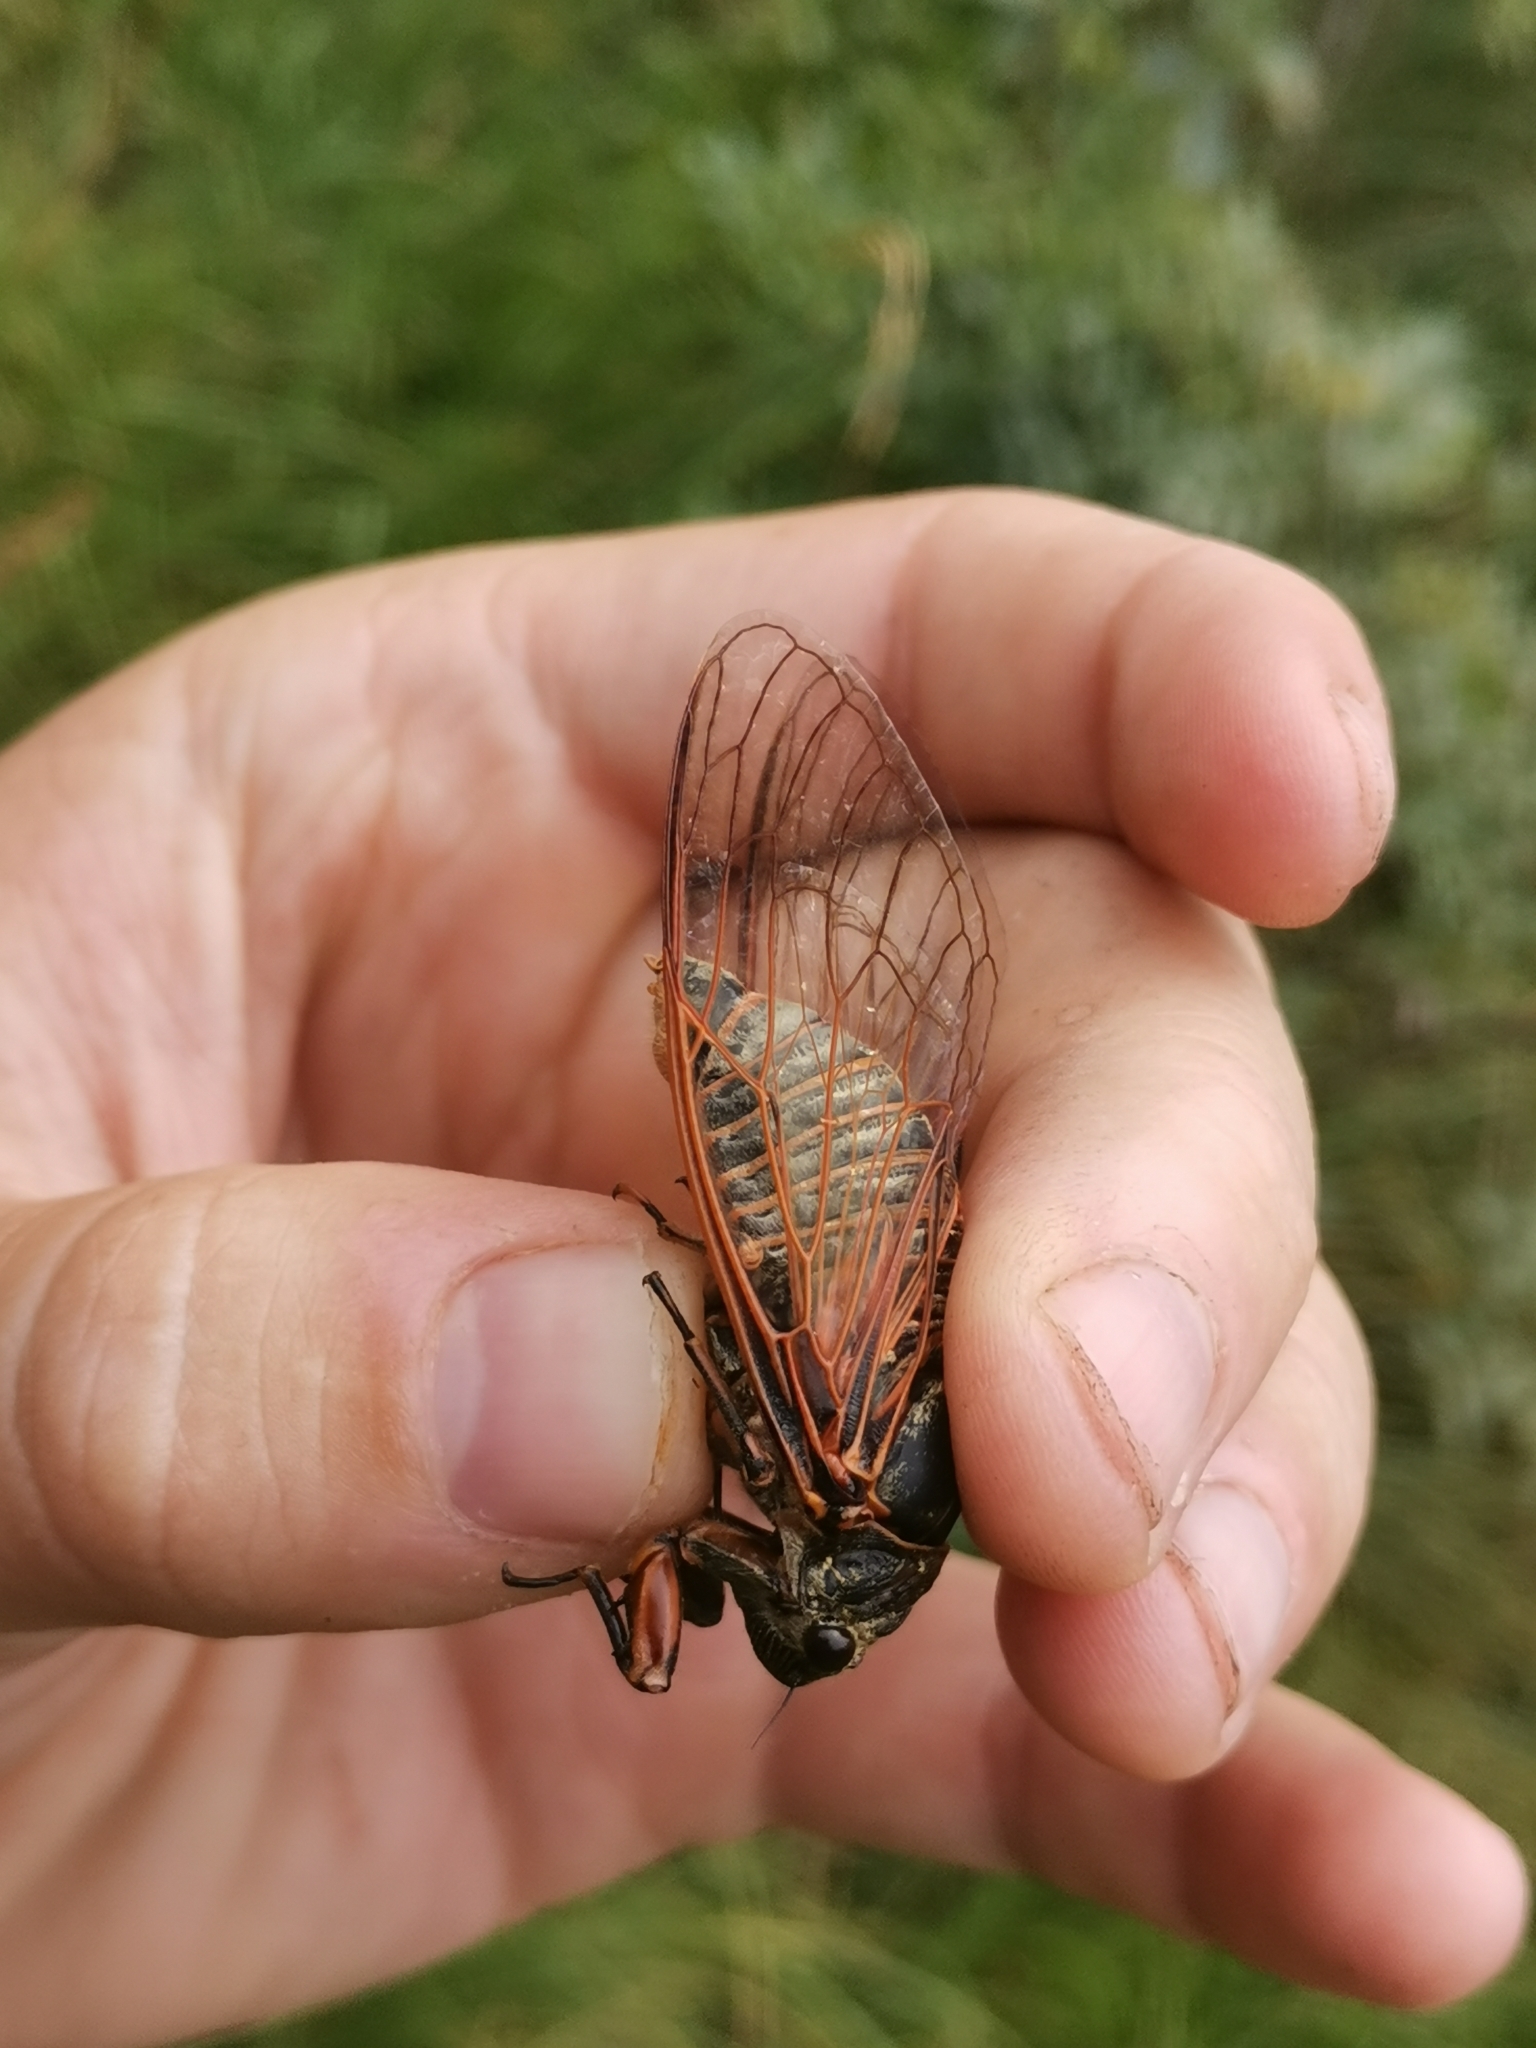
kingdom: Animalia
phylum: Arthropoda
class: Insecta
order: Hemiptera
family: Cicadidae
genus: Tibicina
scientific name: Tibicina haematodes
